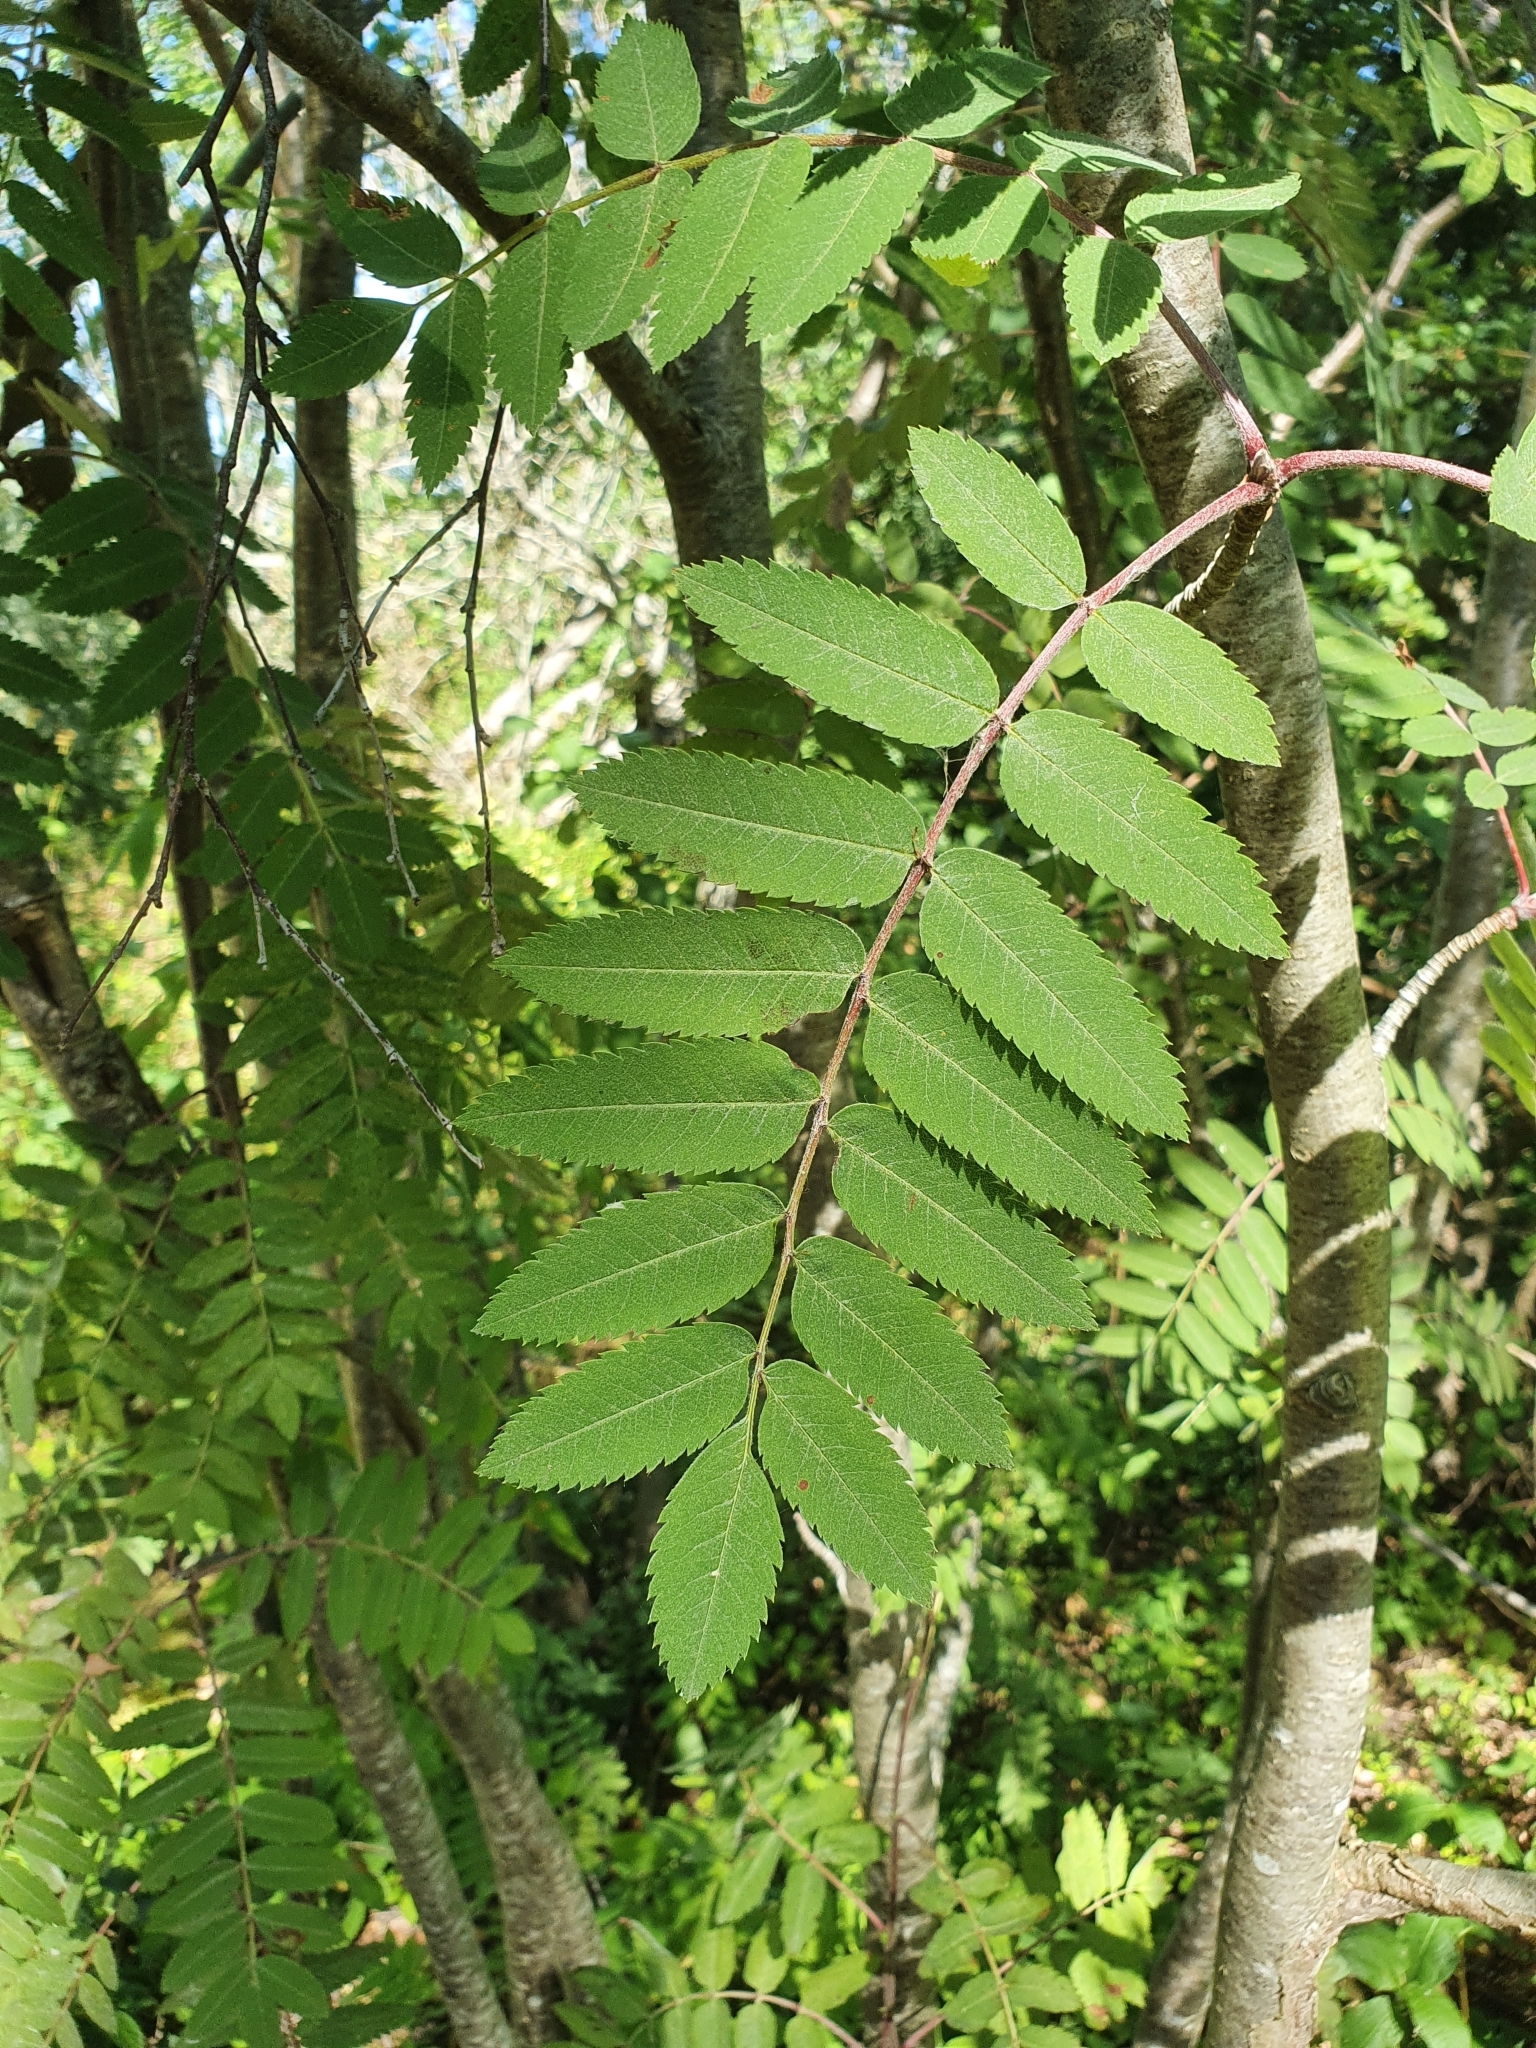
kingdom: Plantae
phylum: Tracheophyta
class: Magnoliopsida
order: Rosales
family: Rosaceae
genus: Sorbus
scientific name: Sorbus aucuparia
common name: Rowan
